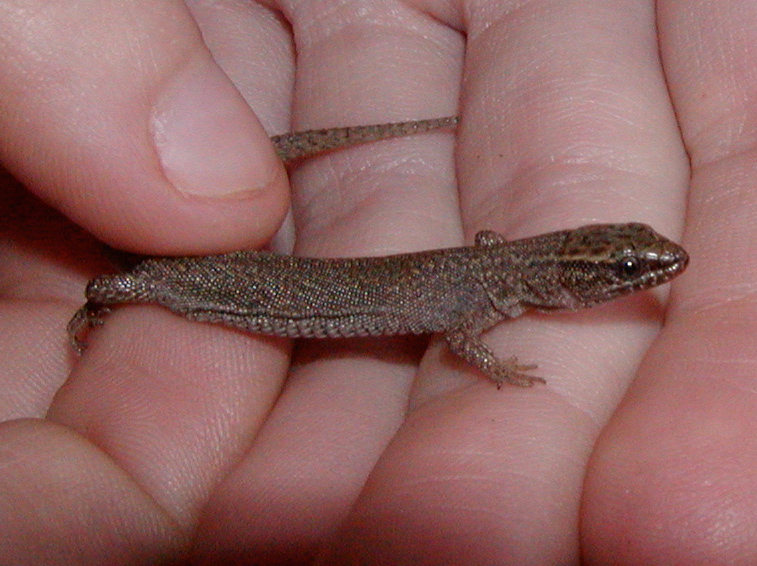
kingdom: Animalia
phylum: Chordata
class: Squamata
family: Xantusiidae
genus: Xantusia
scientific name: Xantusia vigilis
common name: Desert night lizard
